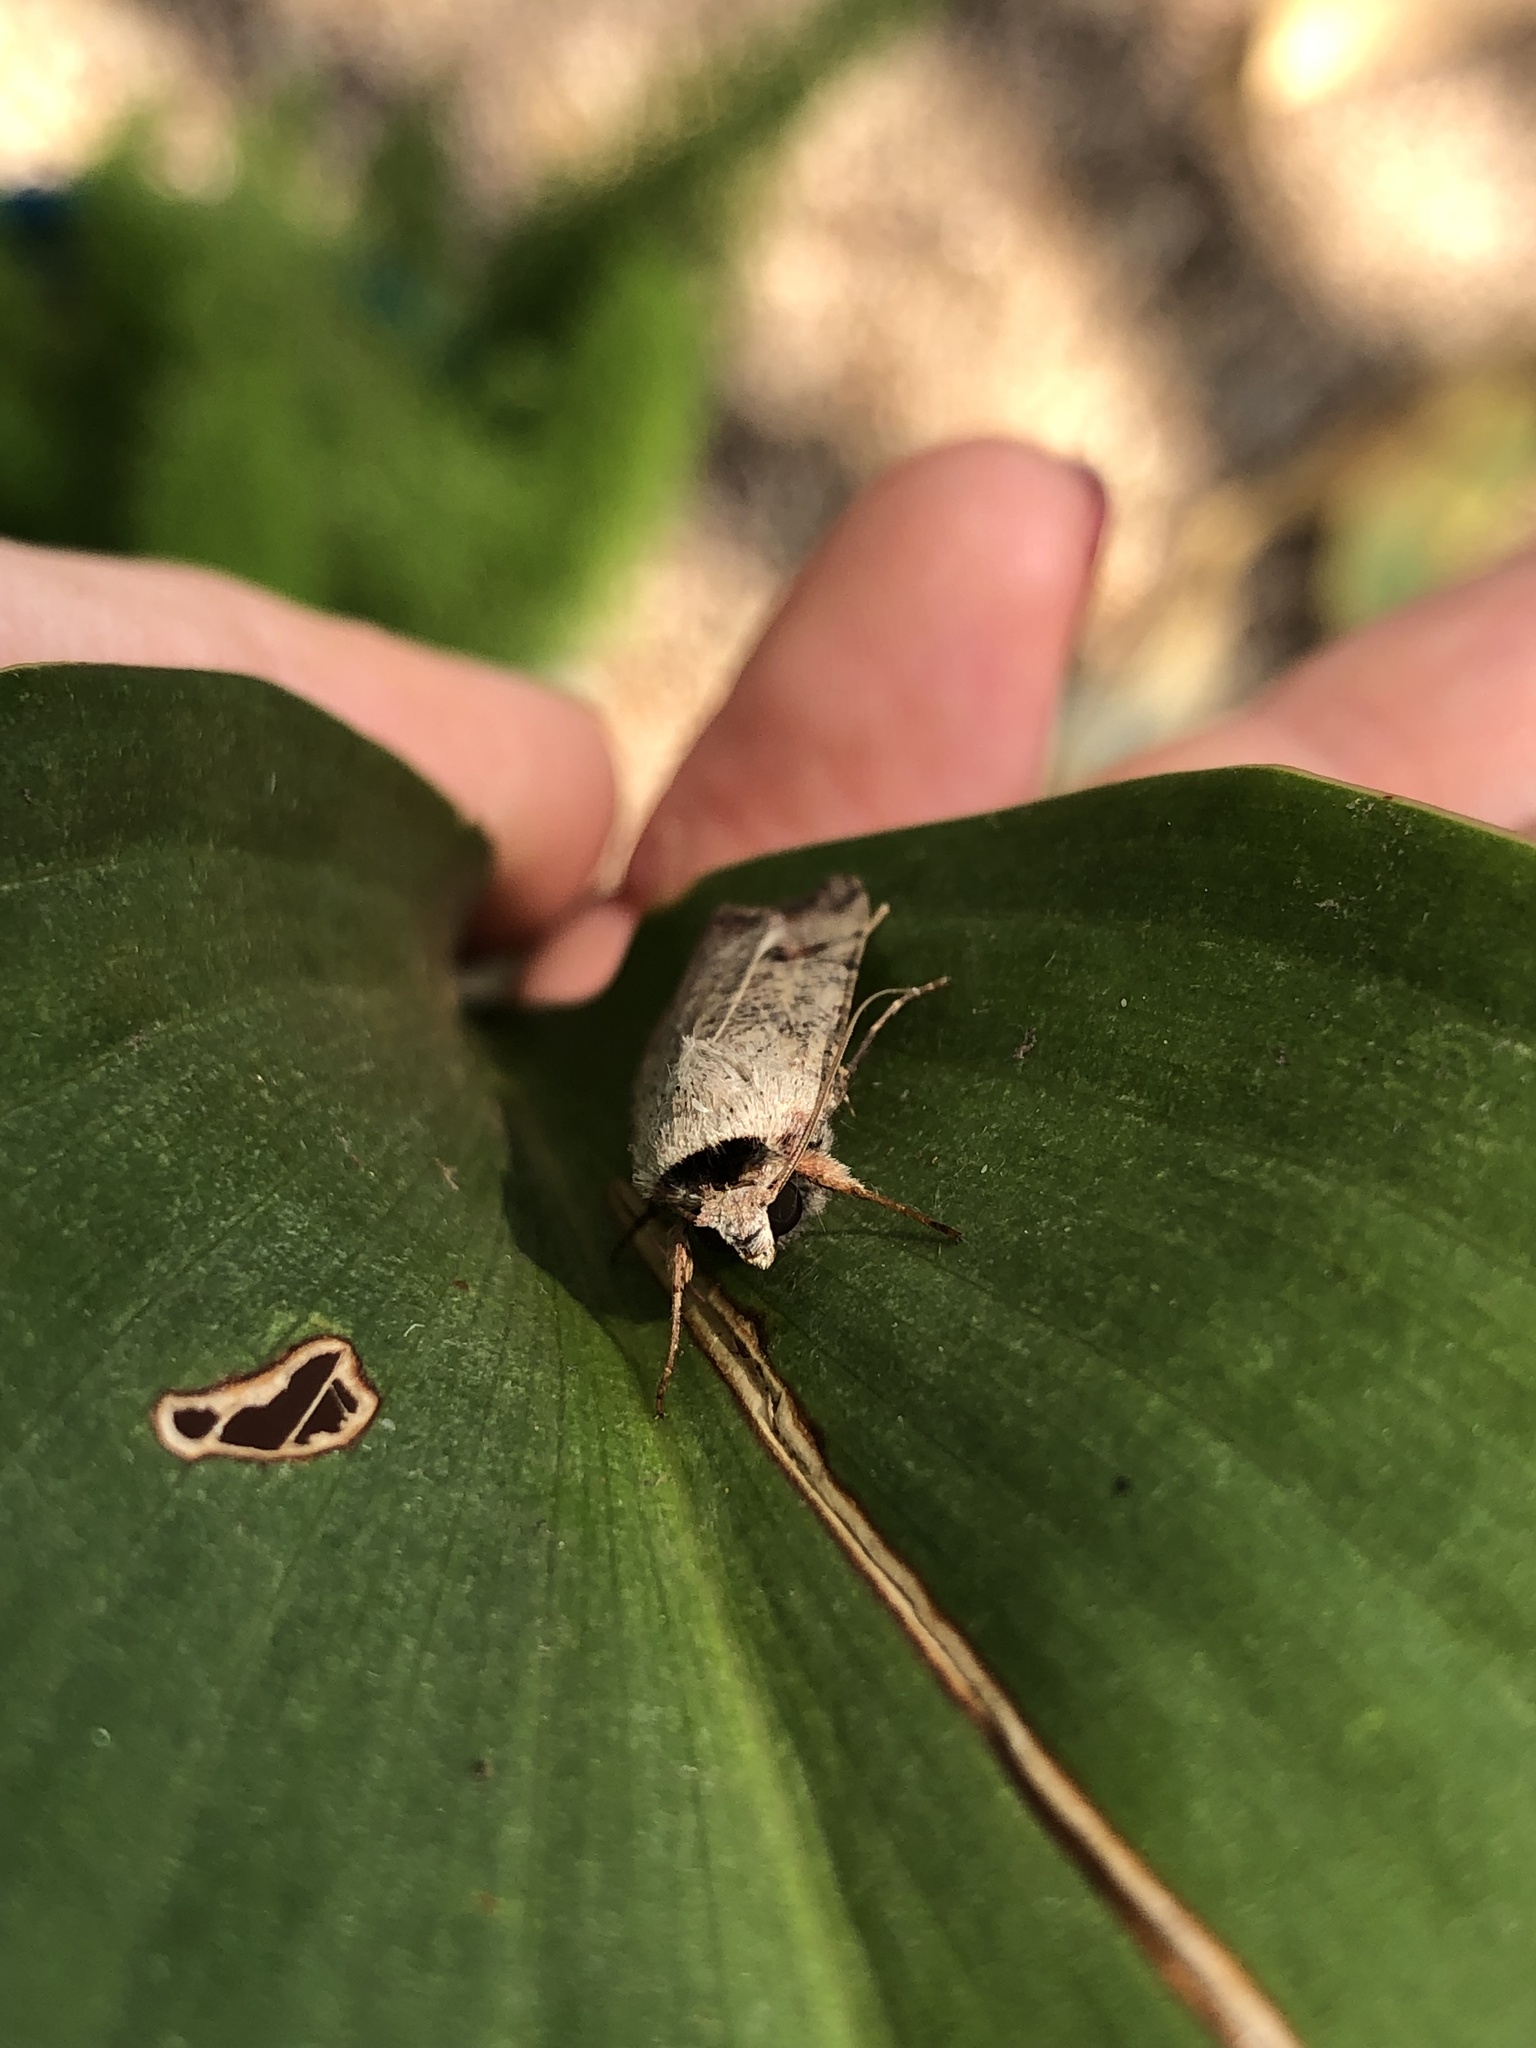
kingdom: Animalia
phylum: Arthropoda
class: Insecta
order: Lepidoptera
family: Noctuidae
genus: Anicla
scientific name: Anicla infecta
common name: Green cutworm
